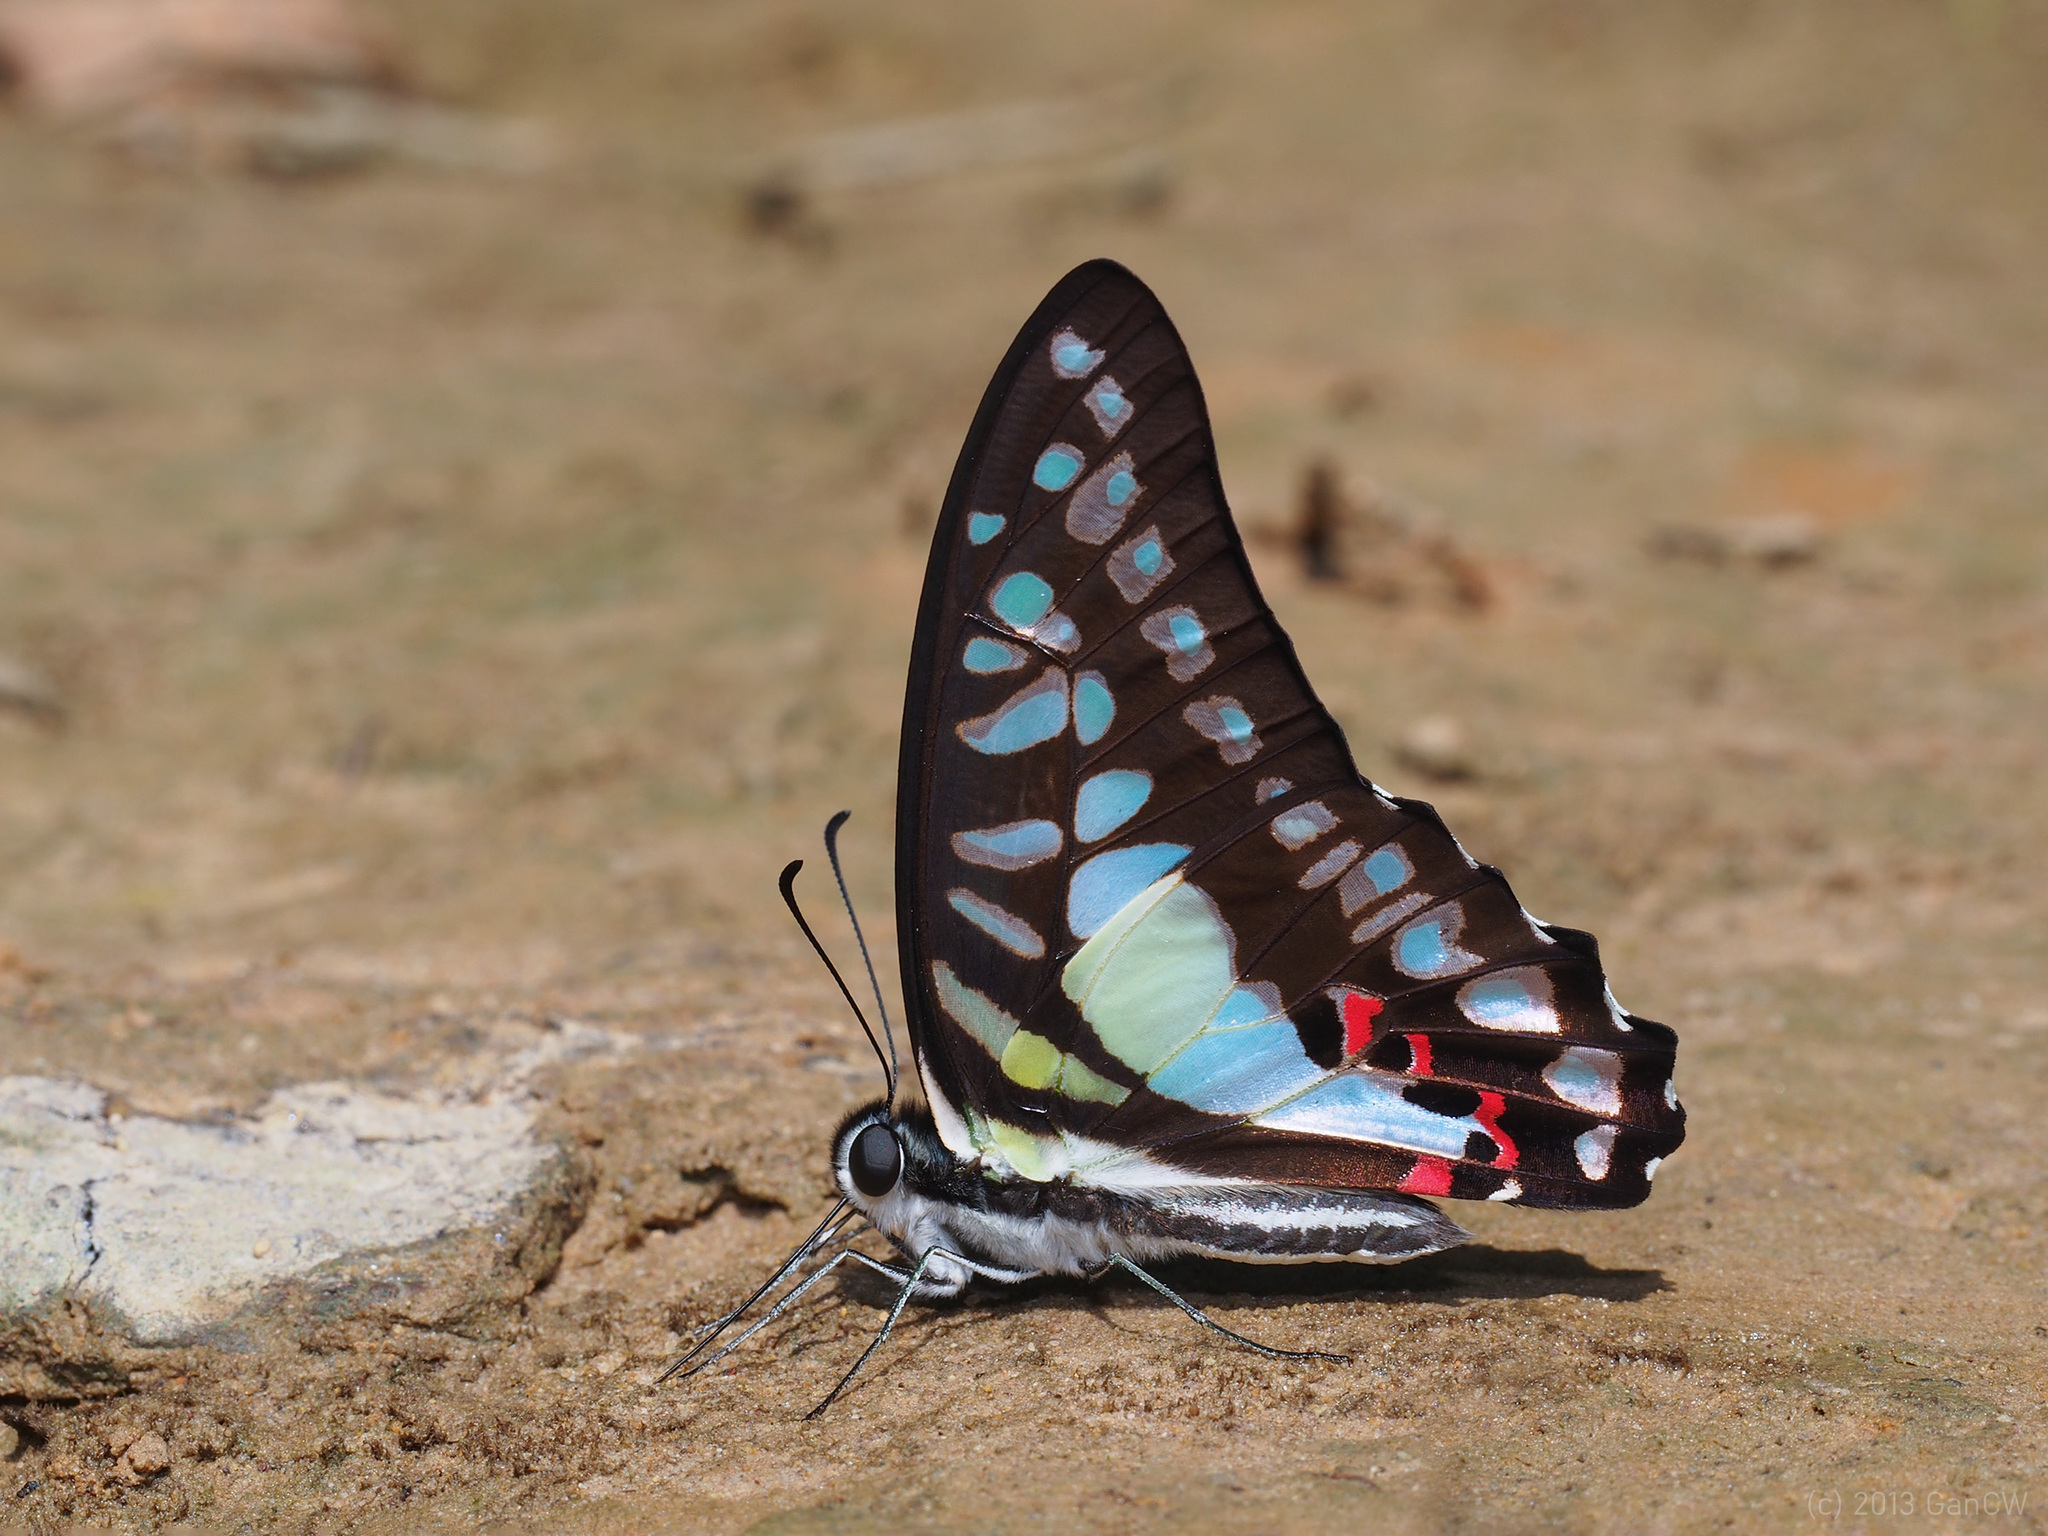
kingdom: Animalia
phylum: Arthropoda
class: Insecta
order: Lepidoptera
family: Papilionidae
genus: Graphium
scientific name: Graphium evemon
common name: Lesser jay
